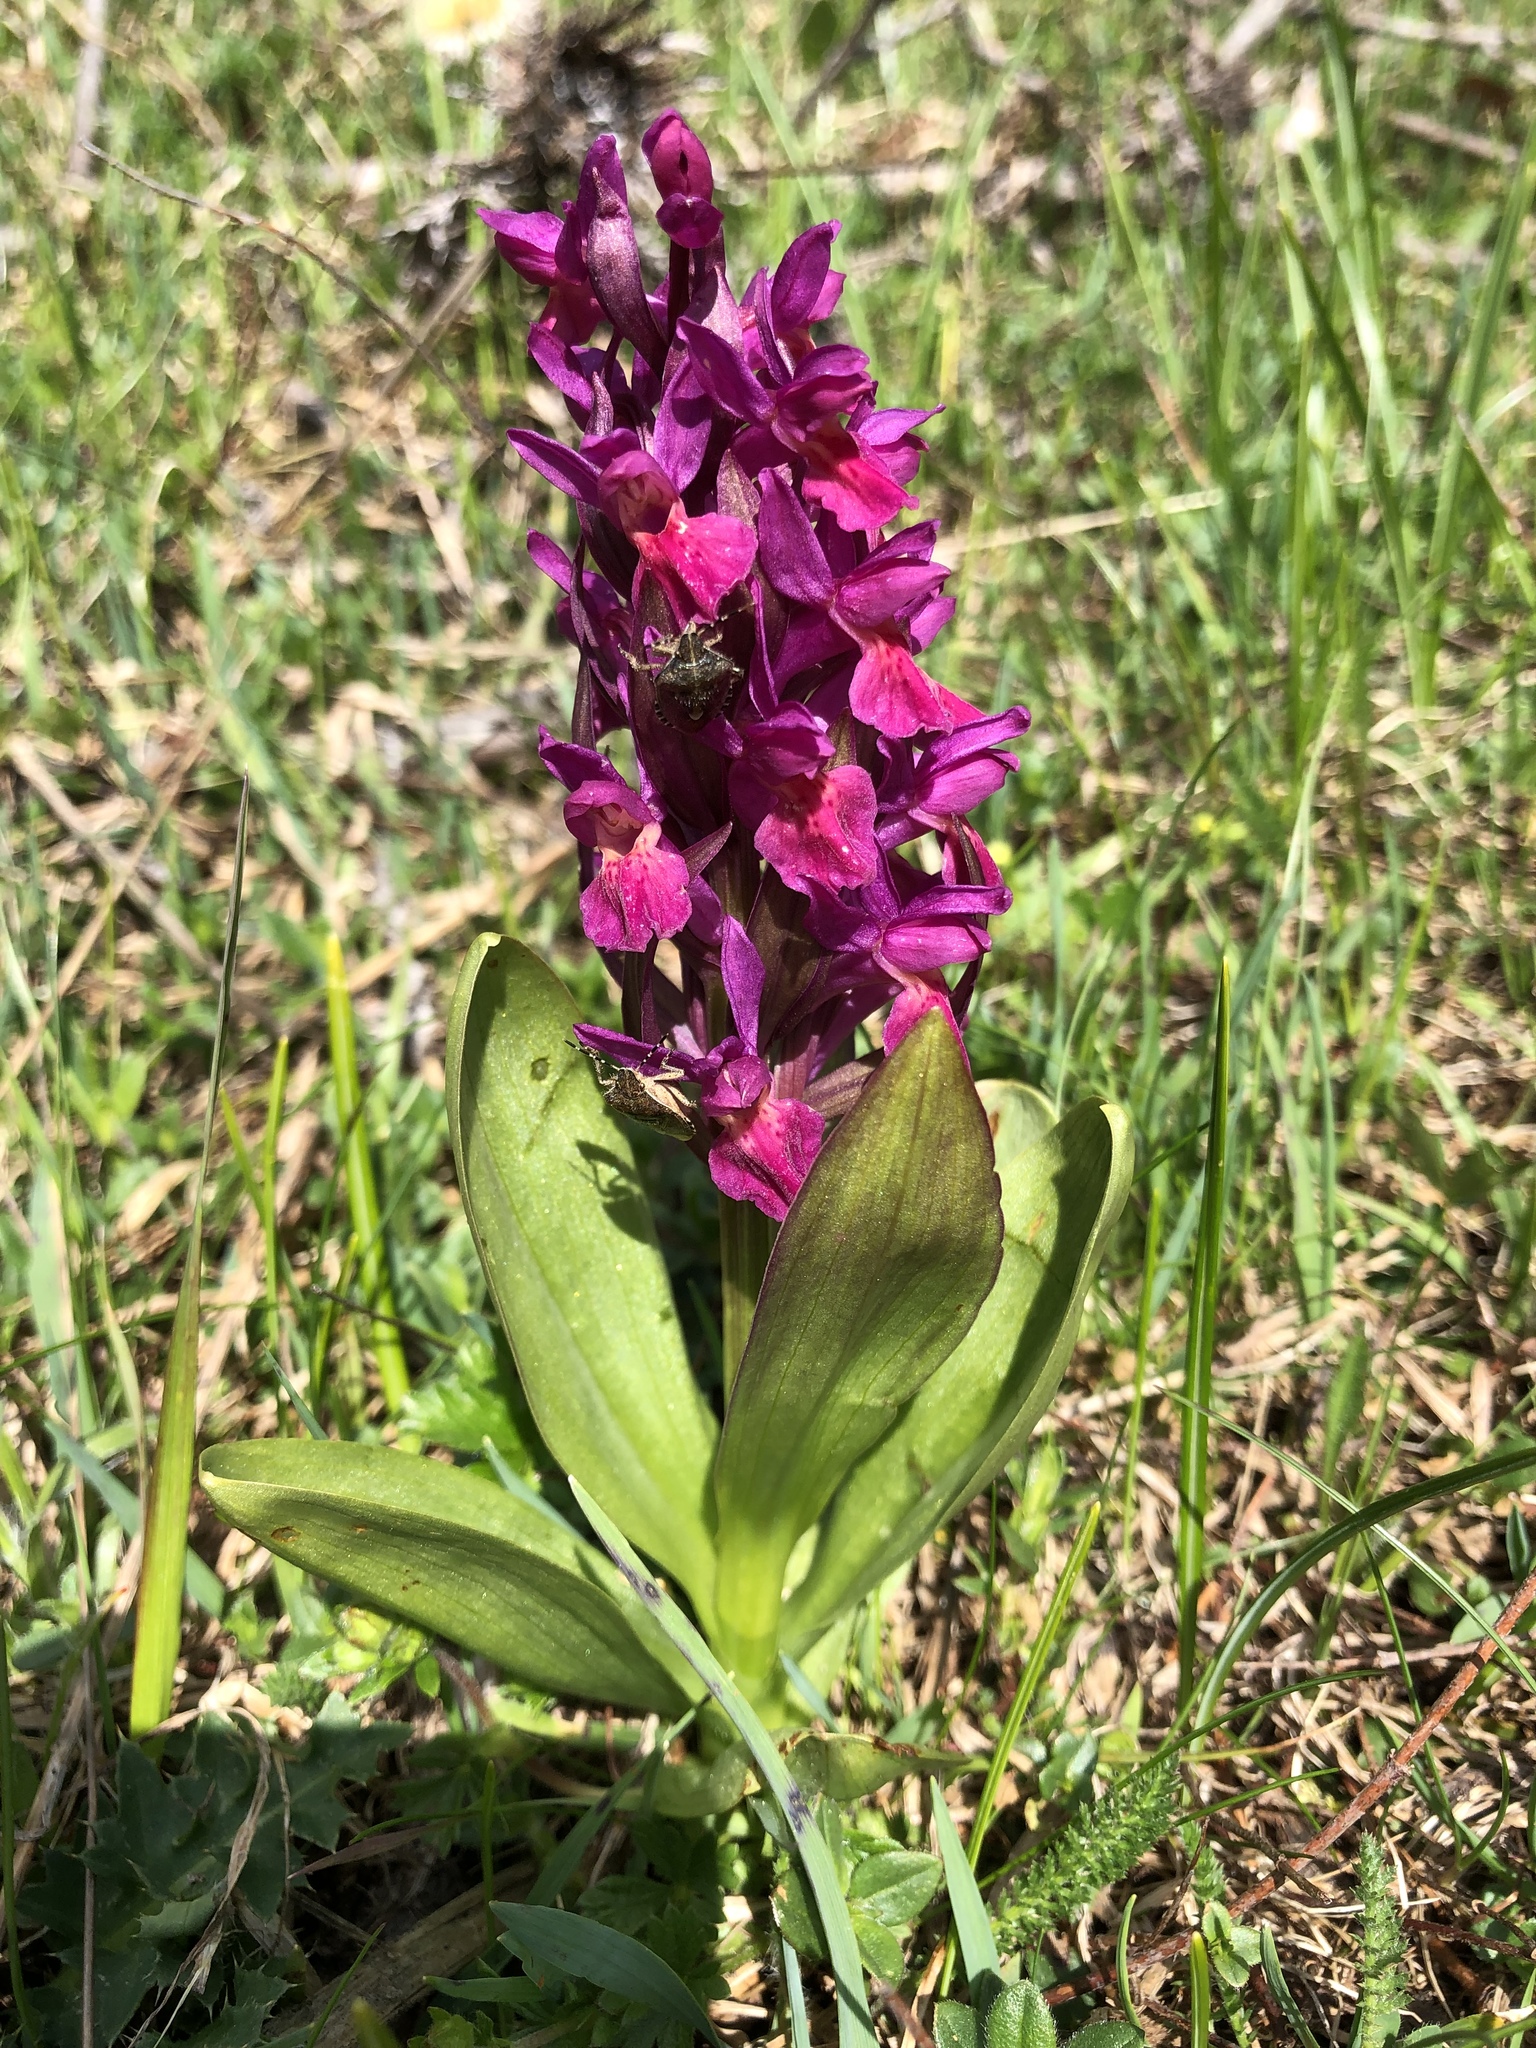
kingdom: Plantae
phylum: Tracheophyta
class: Liliopsida
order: Asparagales
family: Orchidaceae
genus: Dactylorhiza
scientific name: Dactylorhiza sambucina
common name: Elder-flowered orchid
